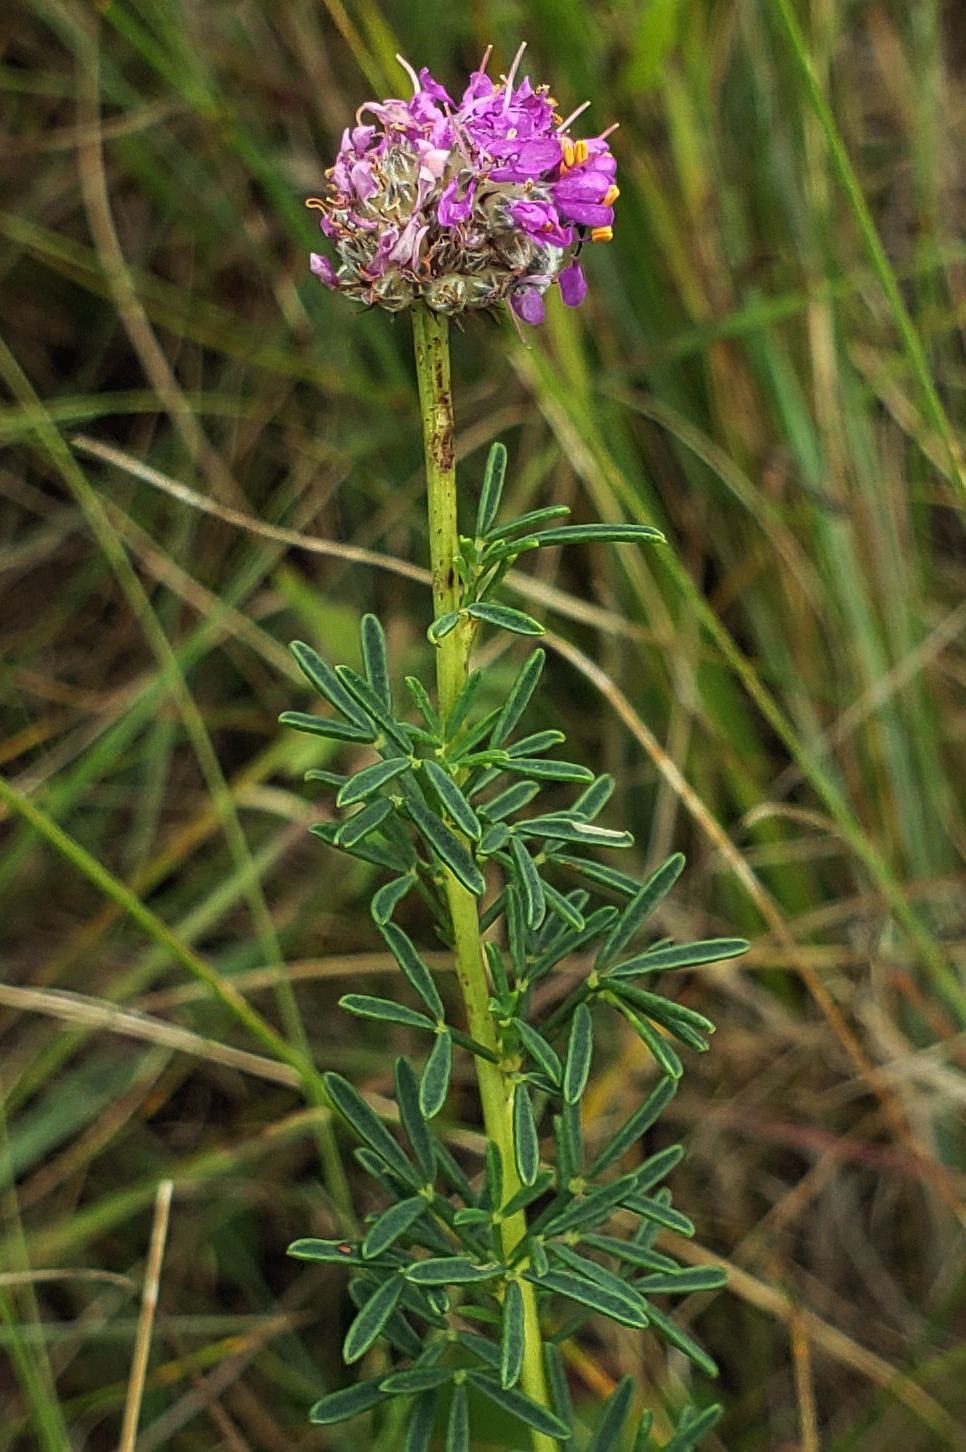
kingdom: Plantae
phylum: Tracheophyta
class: Magnoliopsida
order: Fabales
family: Fabaceae
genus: Dalea
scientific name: Dalea purpurea
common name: Purple prairie-clover
